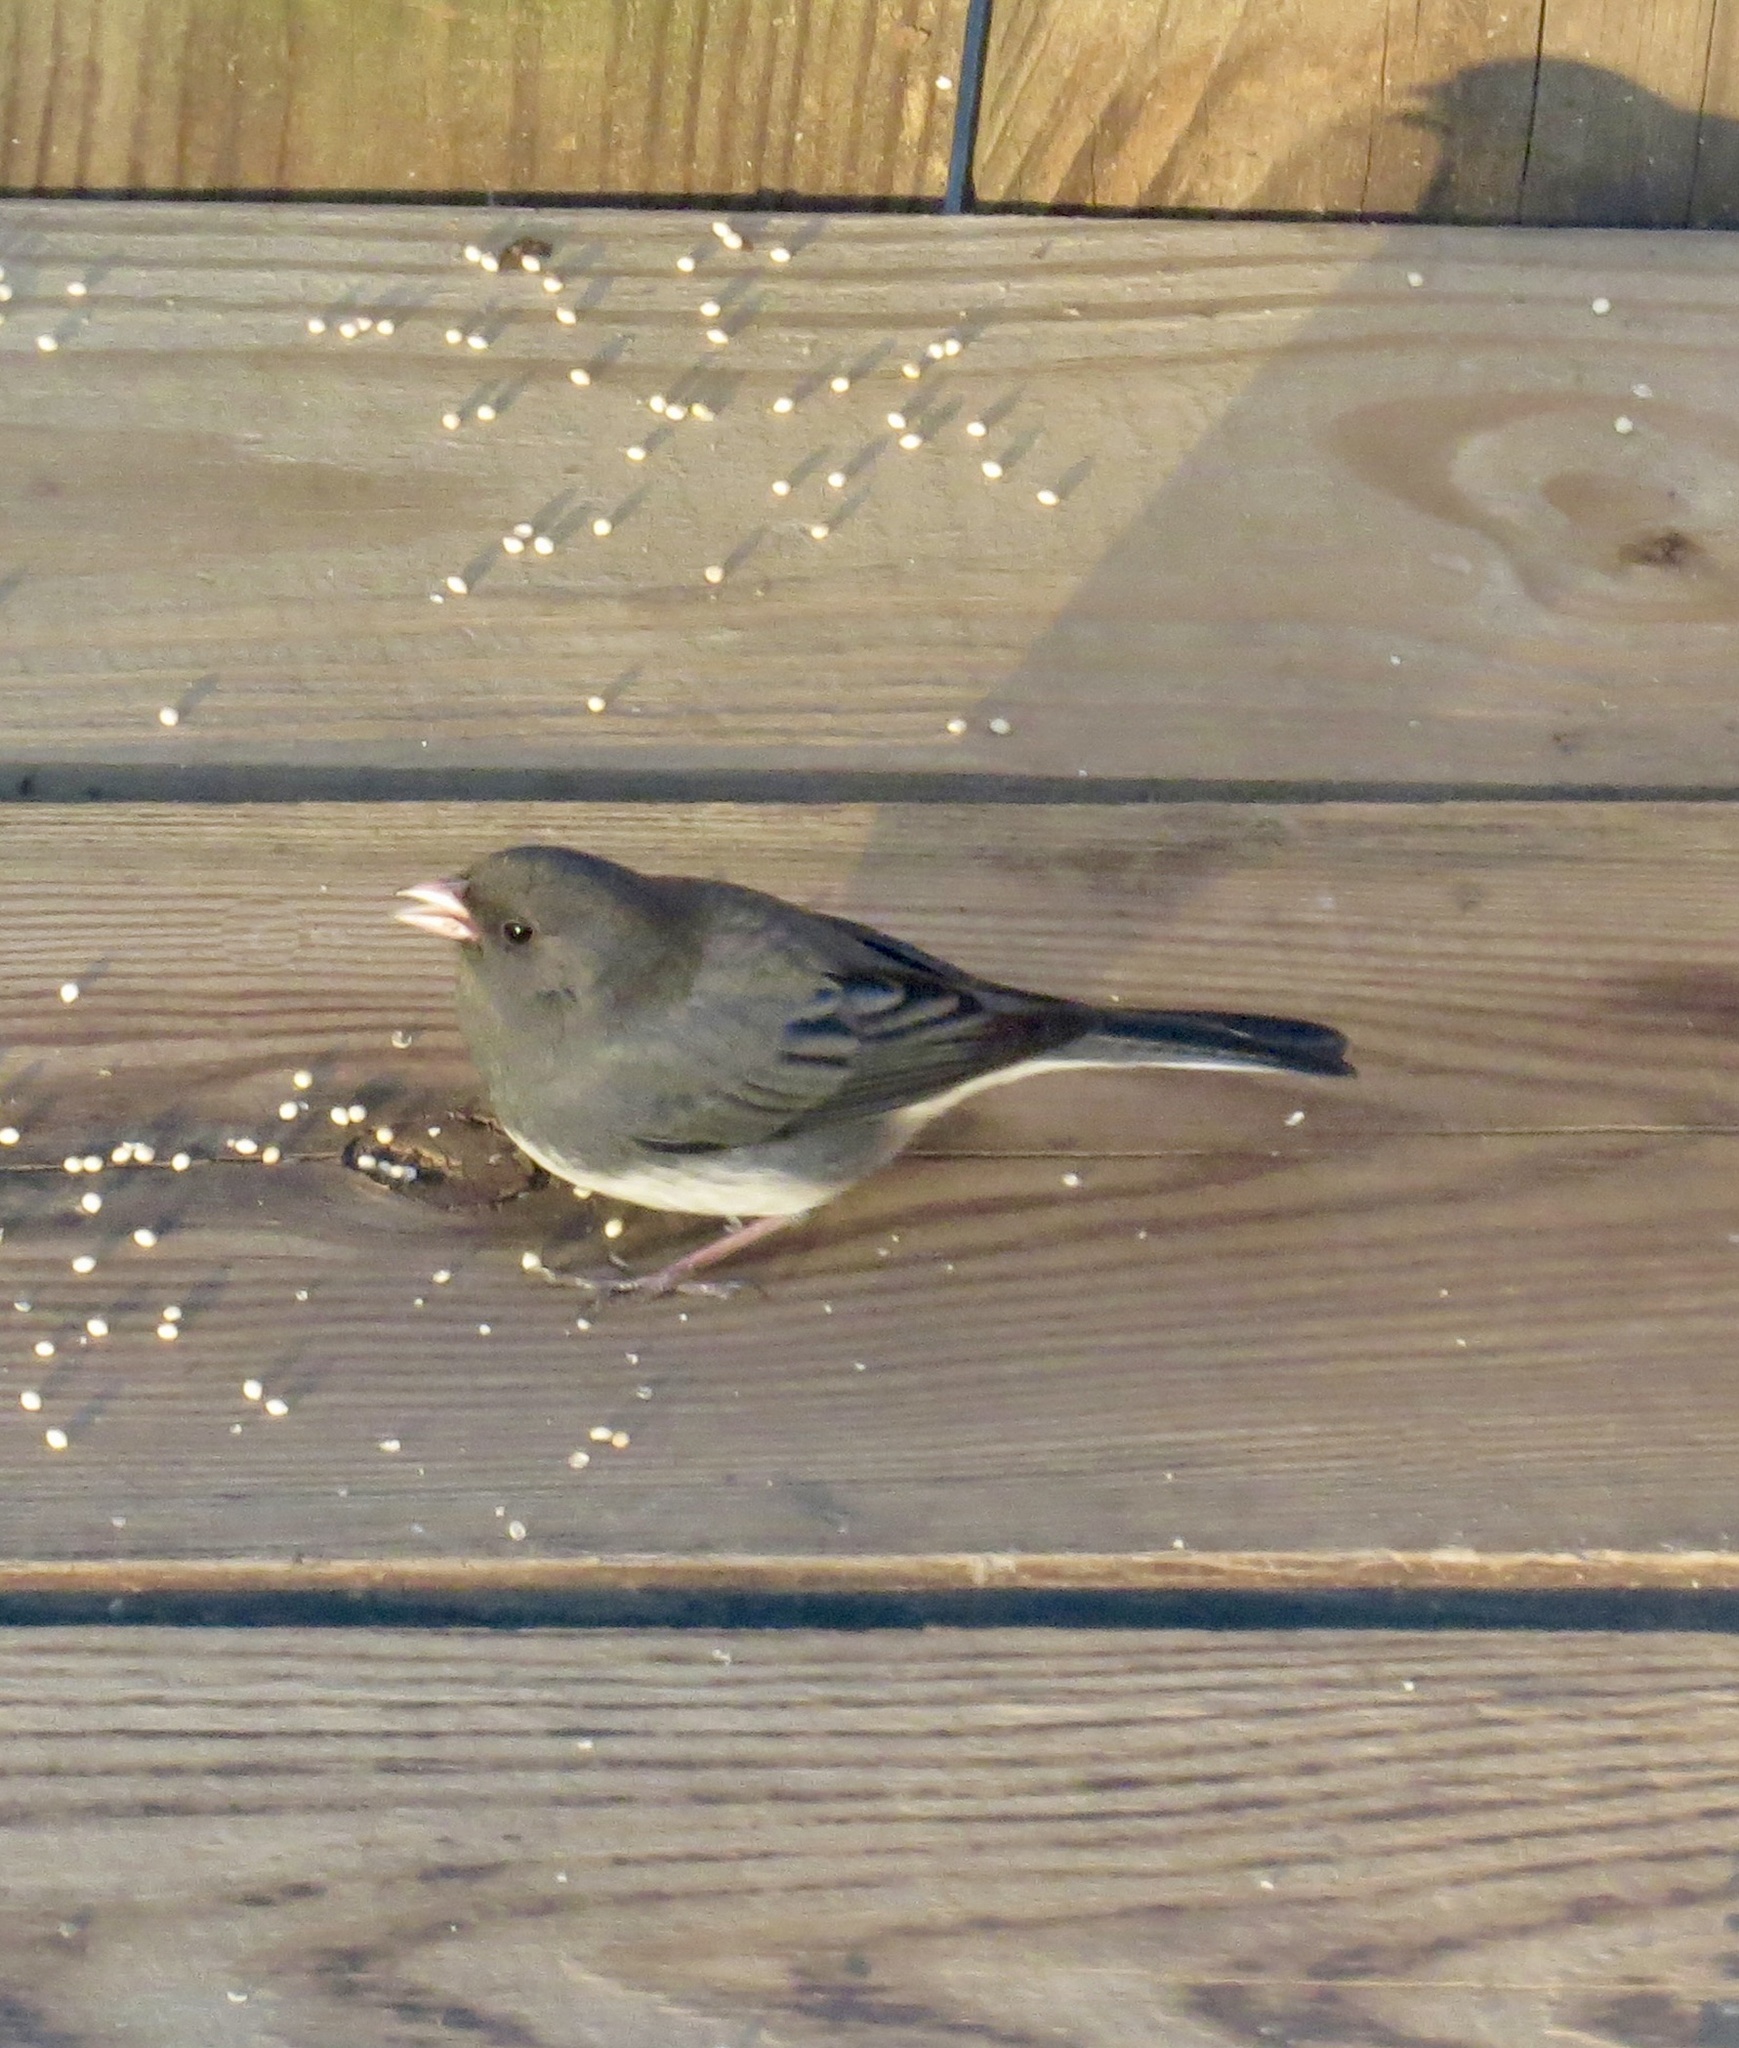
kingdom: Animalia
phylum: Chordata
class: Aves
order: Passeriformes
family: Passerellidae
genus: Junco
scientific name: Junco hyemalis
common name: Dark-eyed junco
